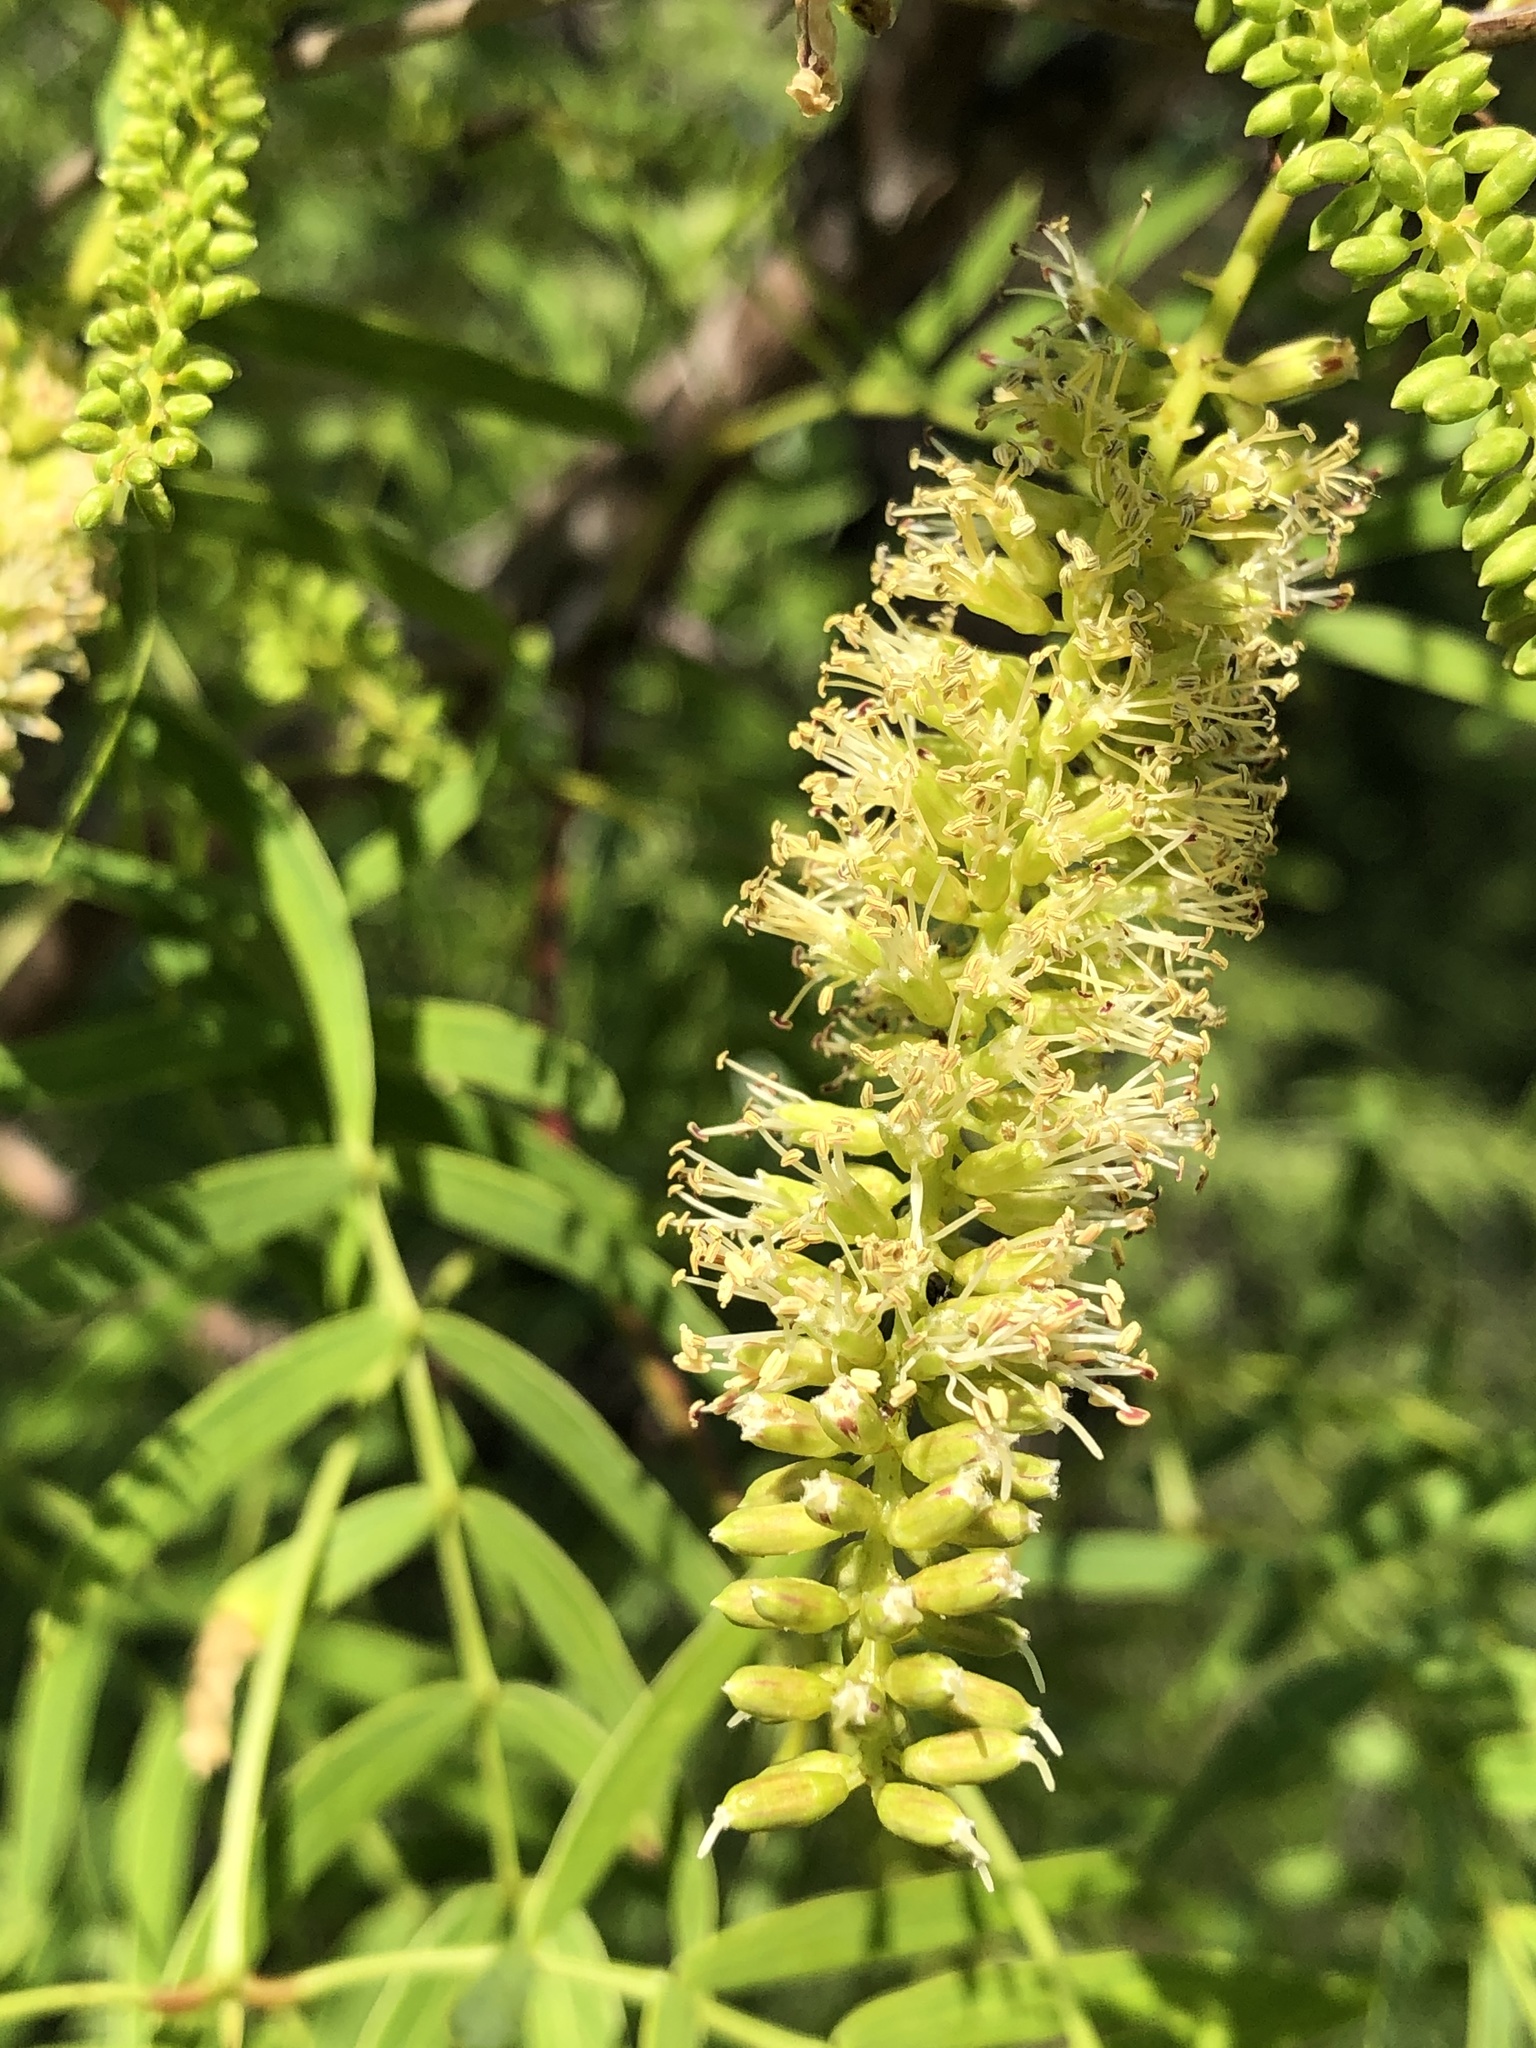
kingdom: Plantae
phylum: Tracheophyta
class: Magnoliopsida
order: Fabales
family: Fabaceae
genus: Prosopis
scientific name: Prosopis glandulosa
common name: Honey mesquite
